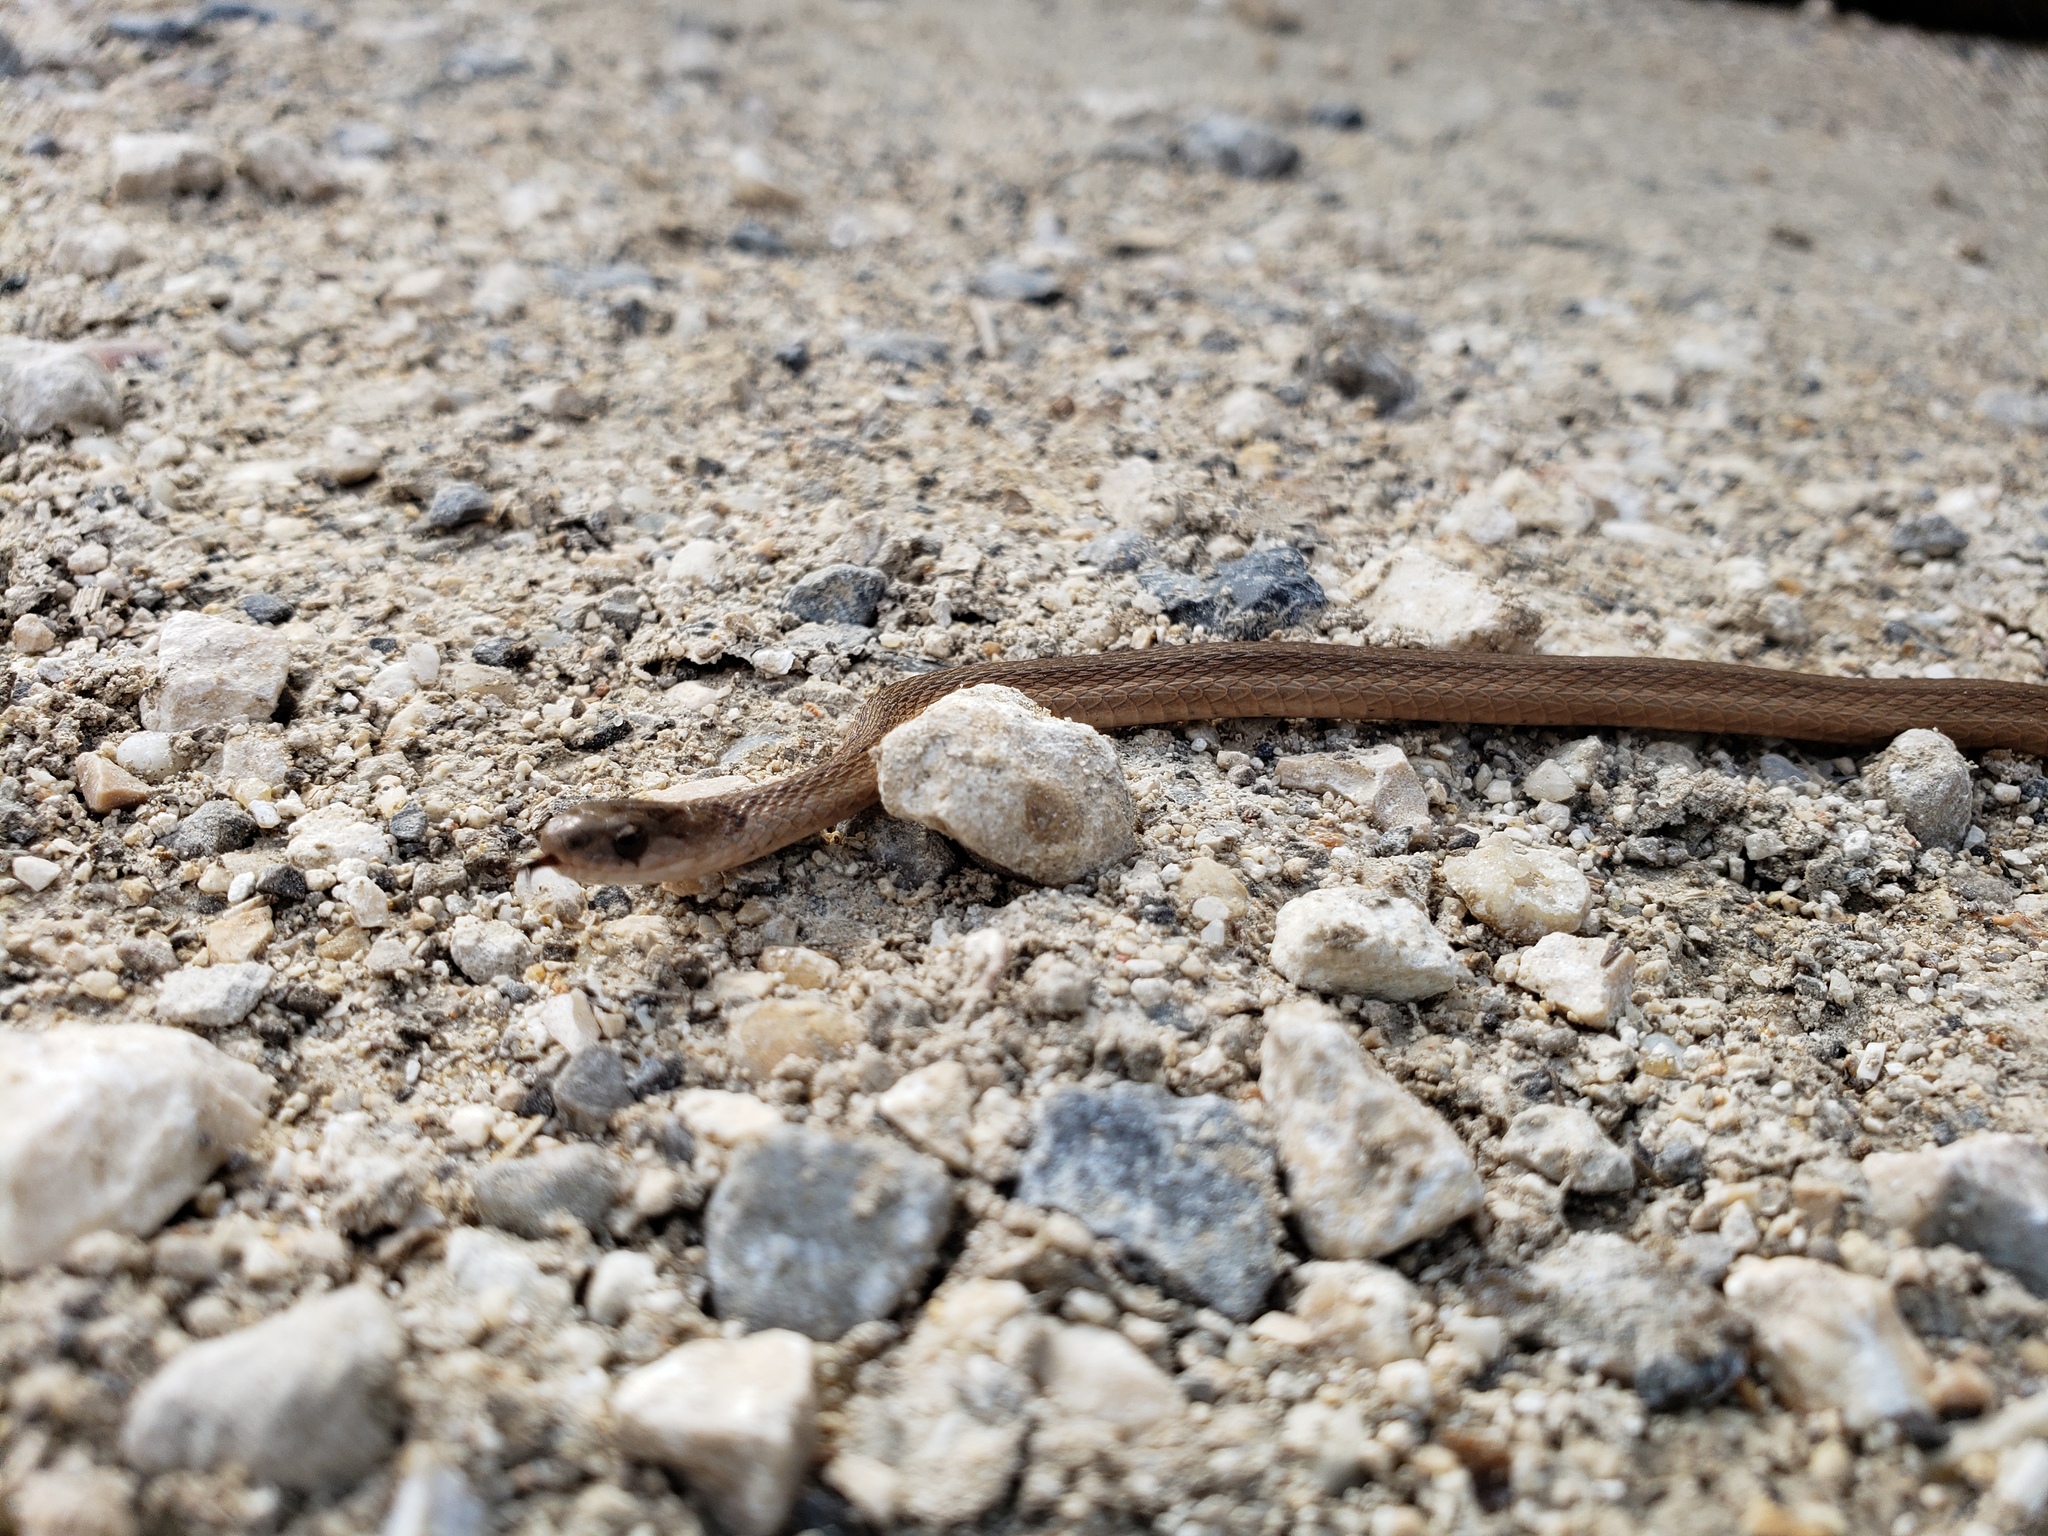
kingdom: Animalia
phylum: Chordata
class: Squamata
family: Colubridae
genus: Storeria
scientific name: Storeria dekayi
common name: (dekay’s) brown snake
